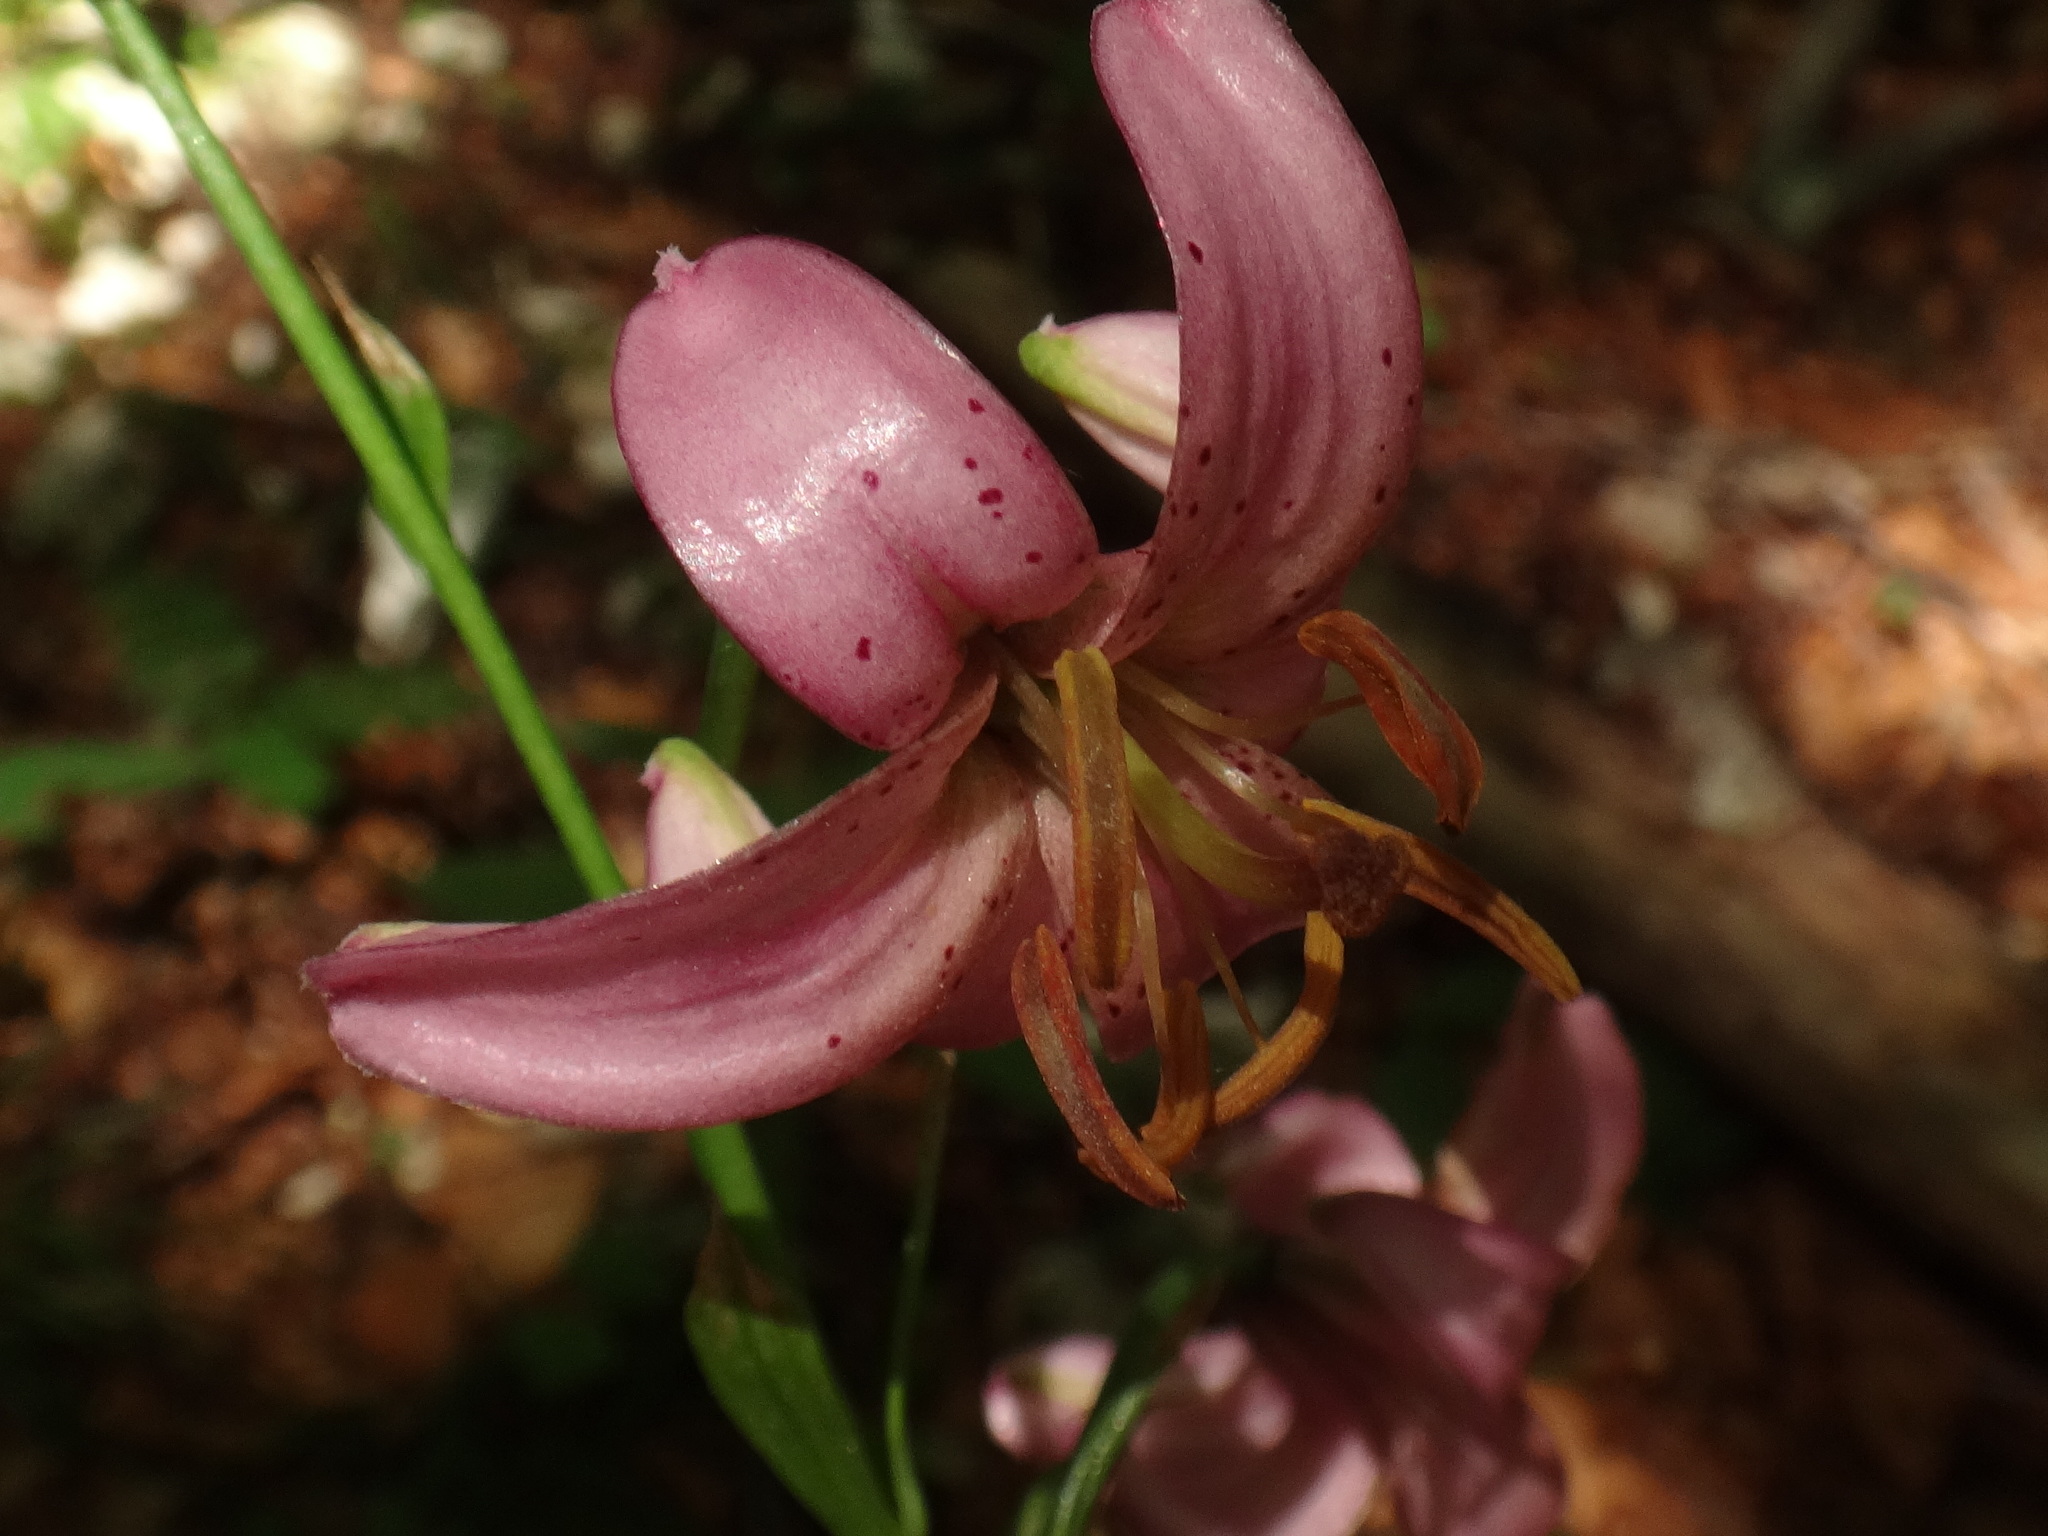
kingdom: Plantae
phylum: Tracheophyta
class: Liliopsida
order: Liliales
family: Liliaceae
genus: Lilium
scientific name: Lilium martagon
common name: Martagon lily
